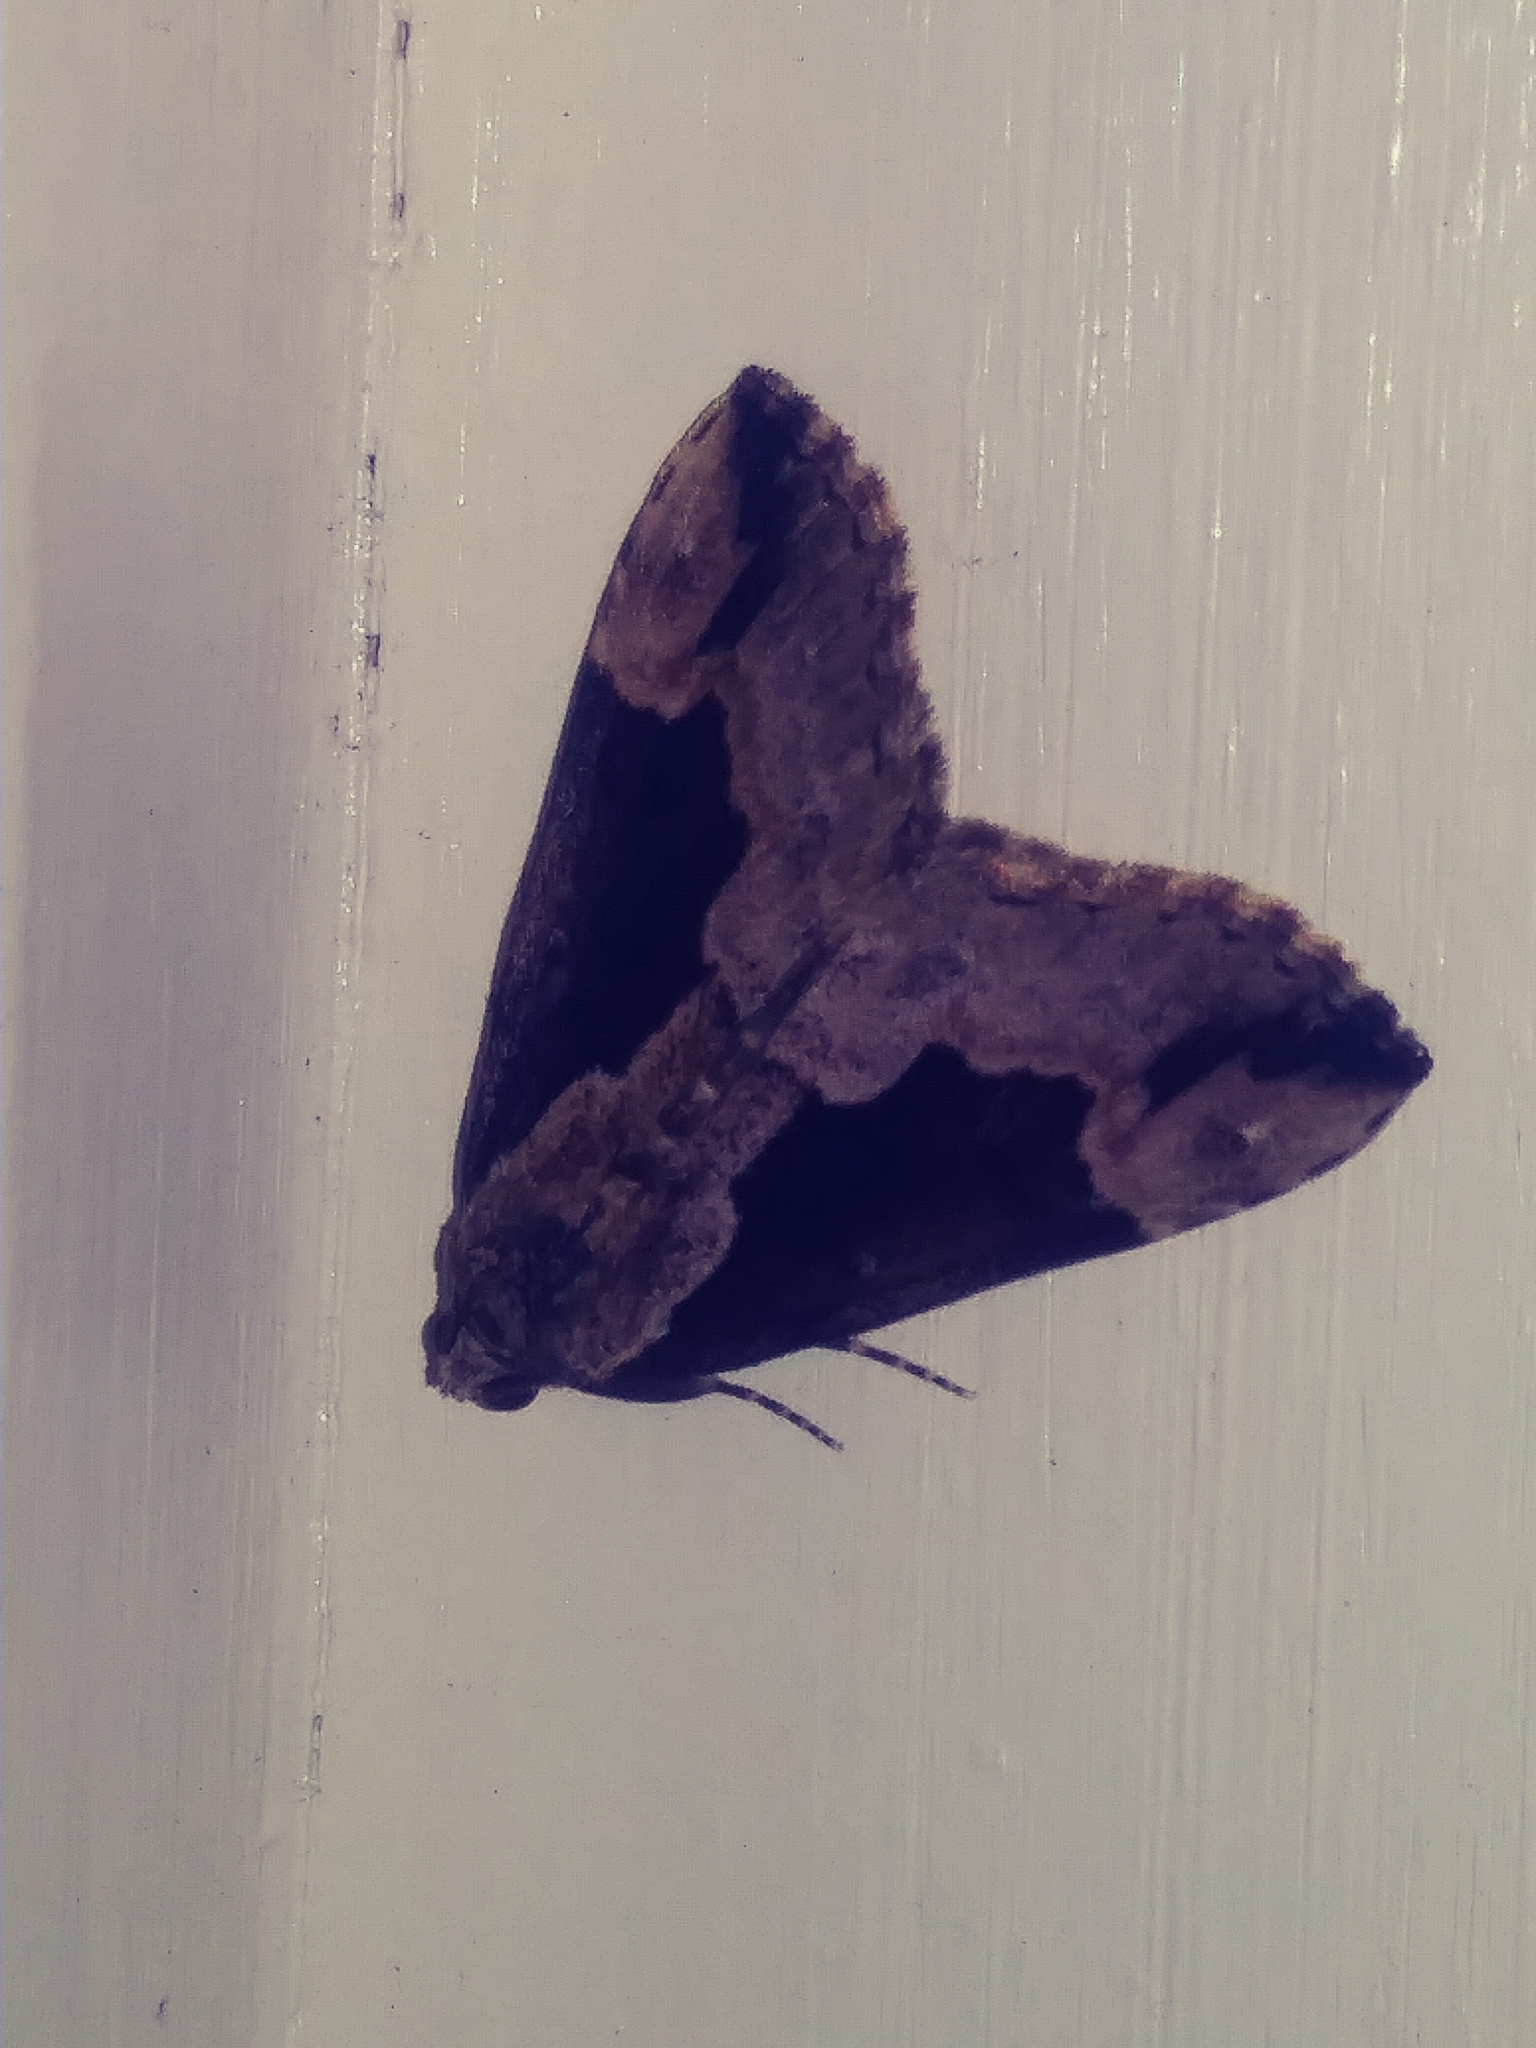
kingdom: Animalia
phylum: Arthropoda
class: Insecta
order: Lepidoptera
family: Erebidae
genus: Hypena
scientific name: Hypena baltimoralis
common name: Baltimore snout
